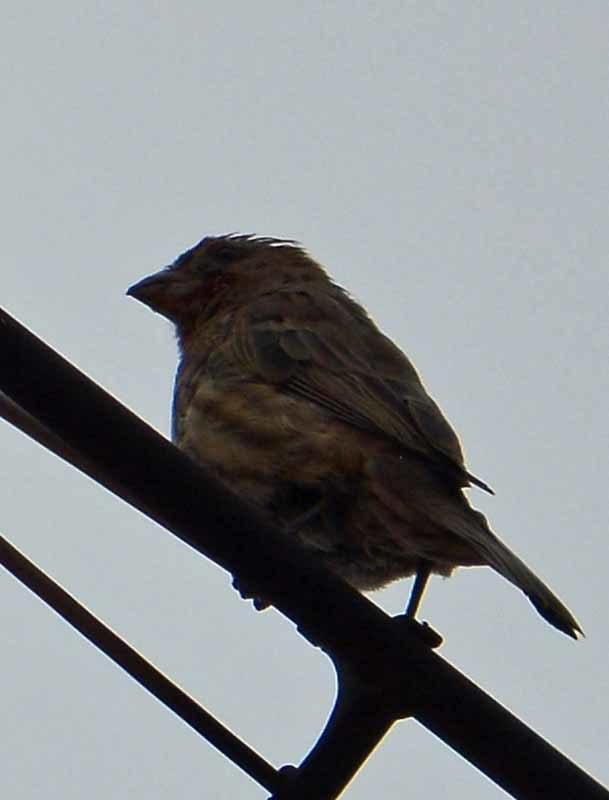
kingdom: Animalia
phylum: Chordata
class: Aves
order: Passeriformes
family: Fringillidae
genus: Haemorhous
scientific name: Haemorhous mexicanus
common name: House finch
